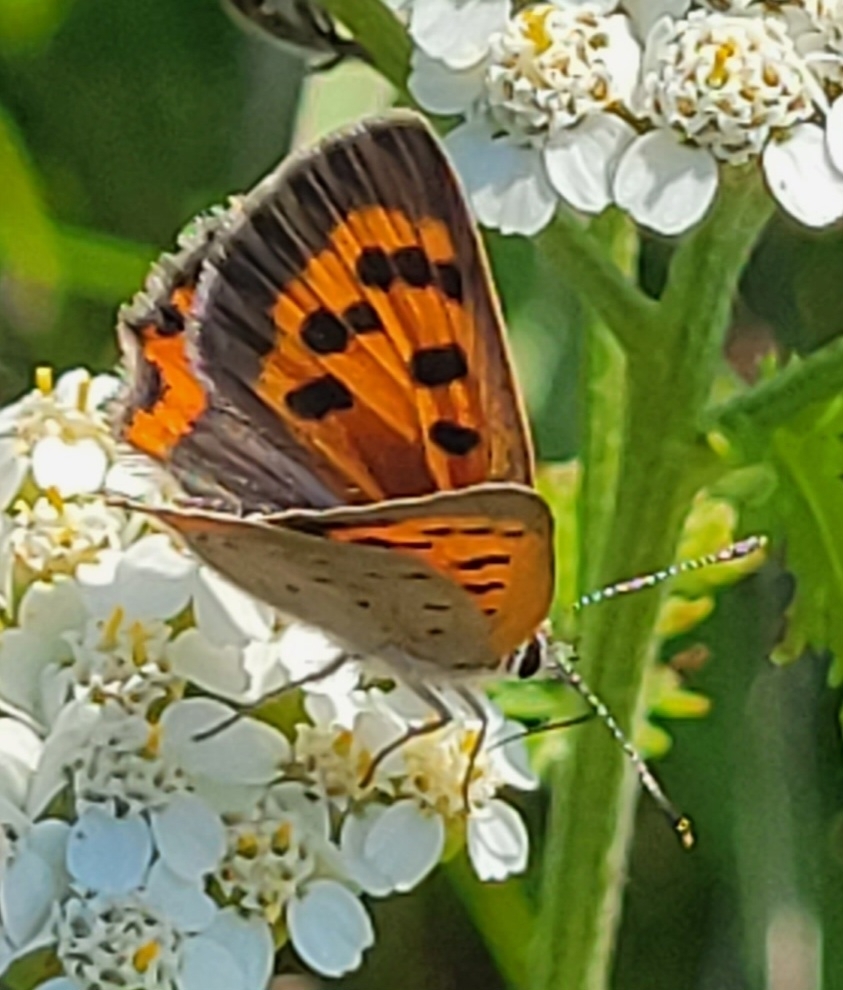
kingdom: Animalia
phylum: Arthropoda
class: Insecta
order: Lepidoptera
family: Lycaenidae
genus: Lycaena
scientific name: Lycaena hypophlaeas
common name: American copper
